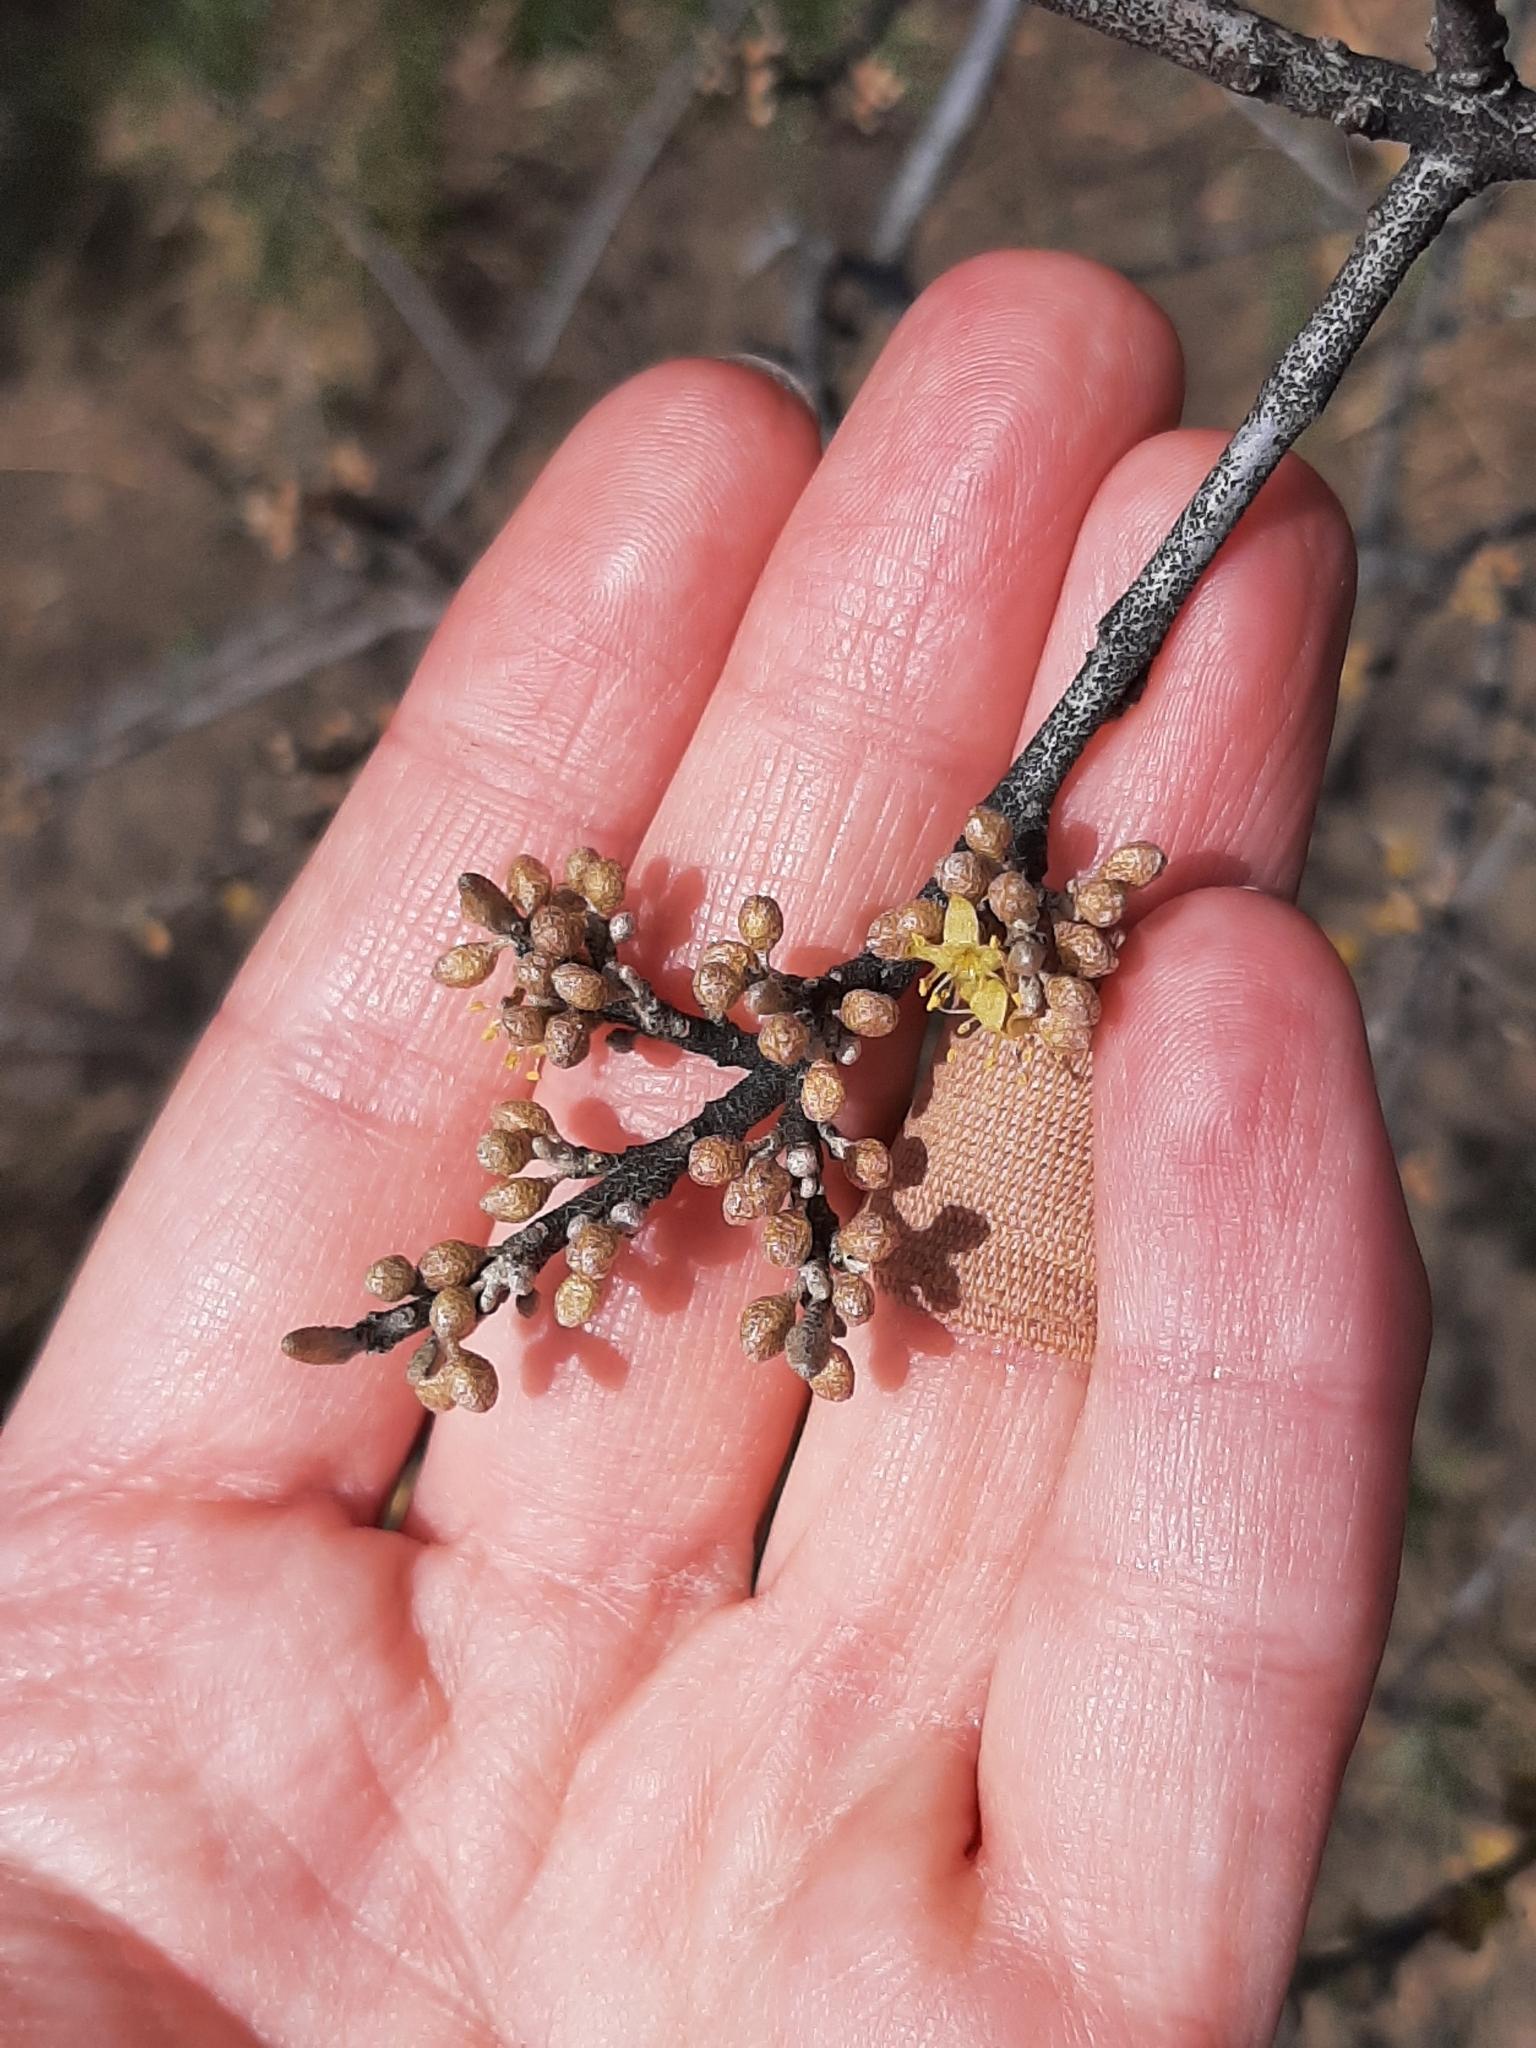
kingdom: Plantae
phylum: Tracheophyta
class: Magnoliopsida
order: Rosales
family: Elaeagnaceae
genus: Shepherdia
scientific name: Shepherdia canadensis
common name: Soapberry
